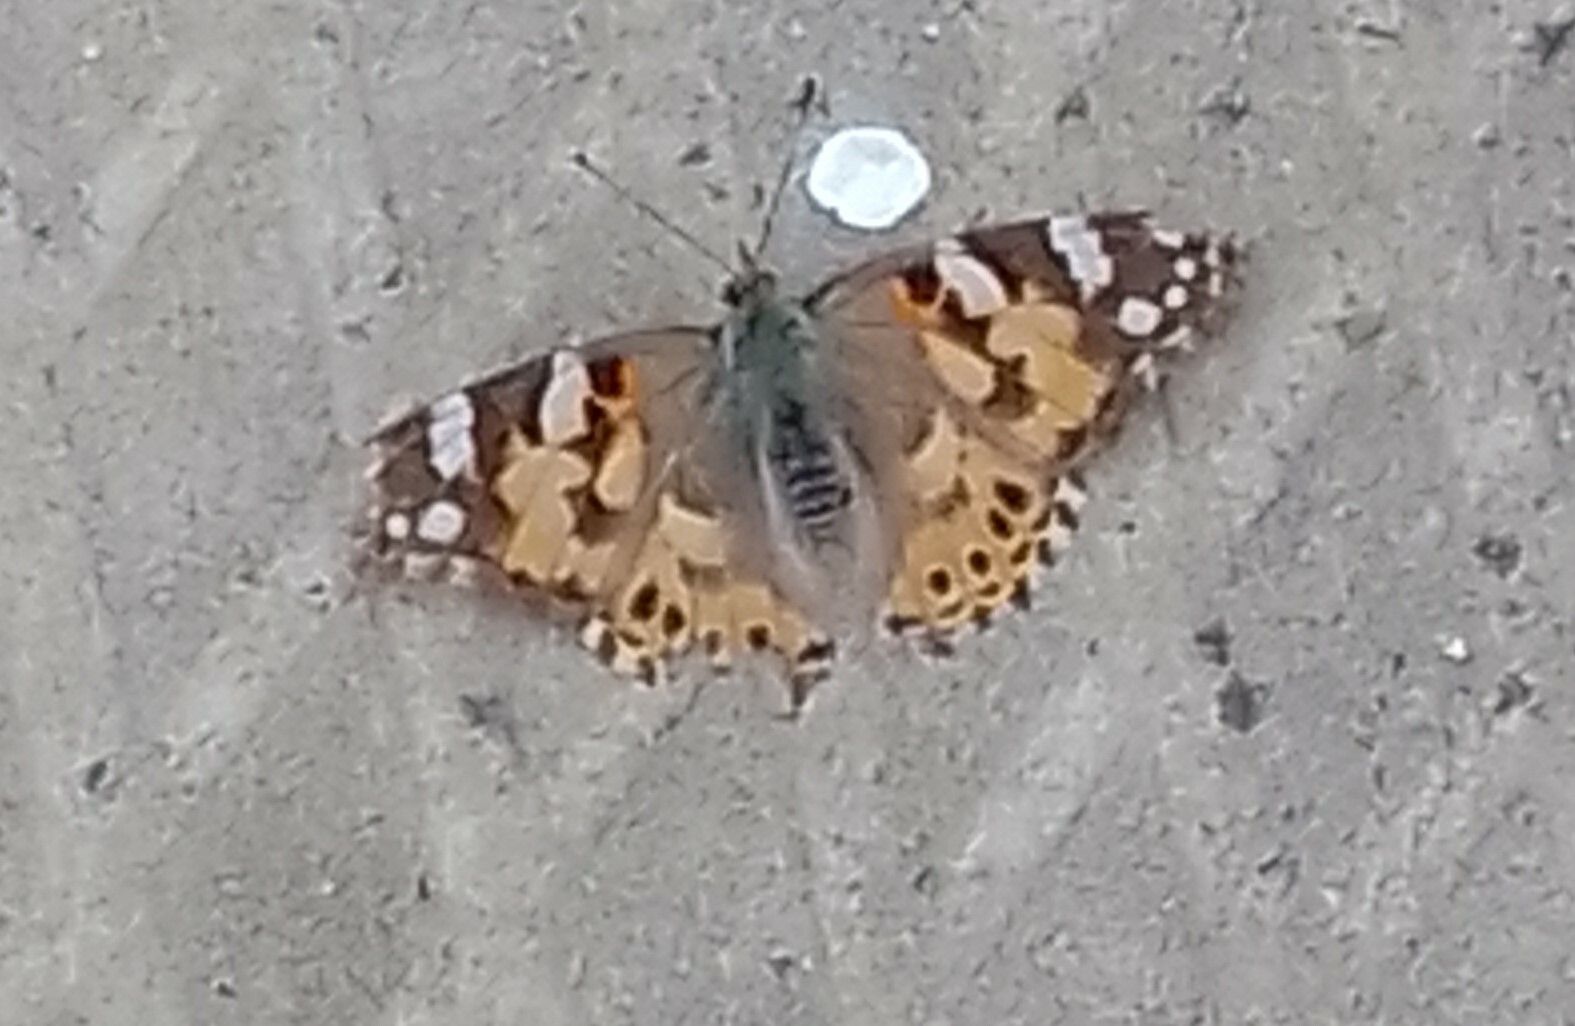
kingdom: Animalia
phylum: Arthropoda
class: Insecta
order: Lepidoptera
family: Nymphalidae
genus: Vanessa
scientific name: Vanessa cardui
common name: Painted lady
